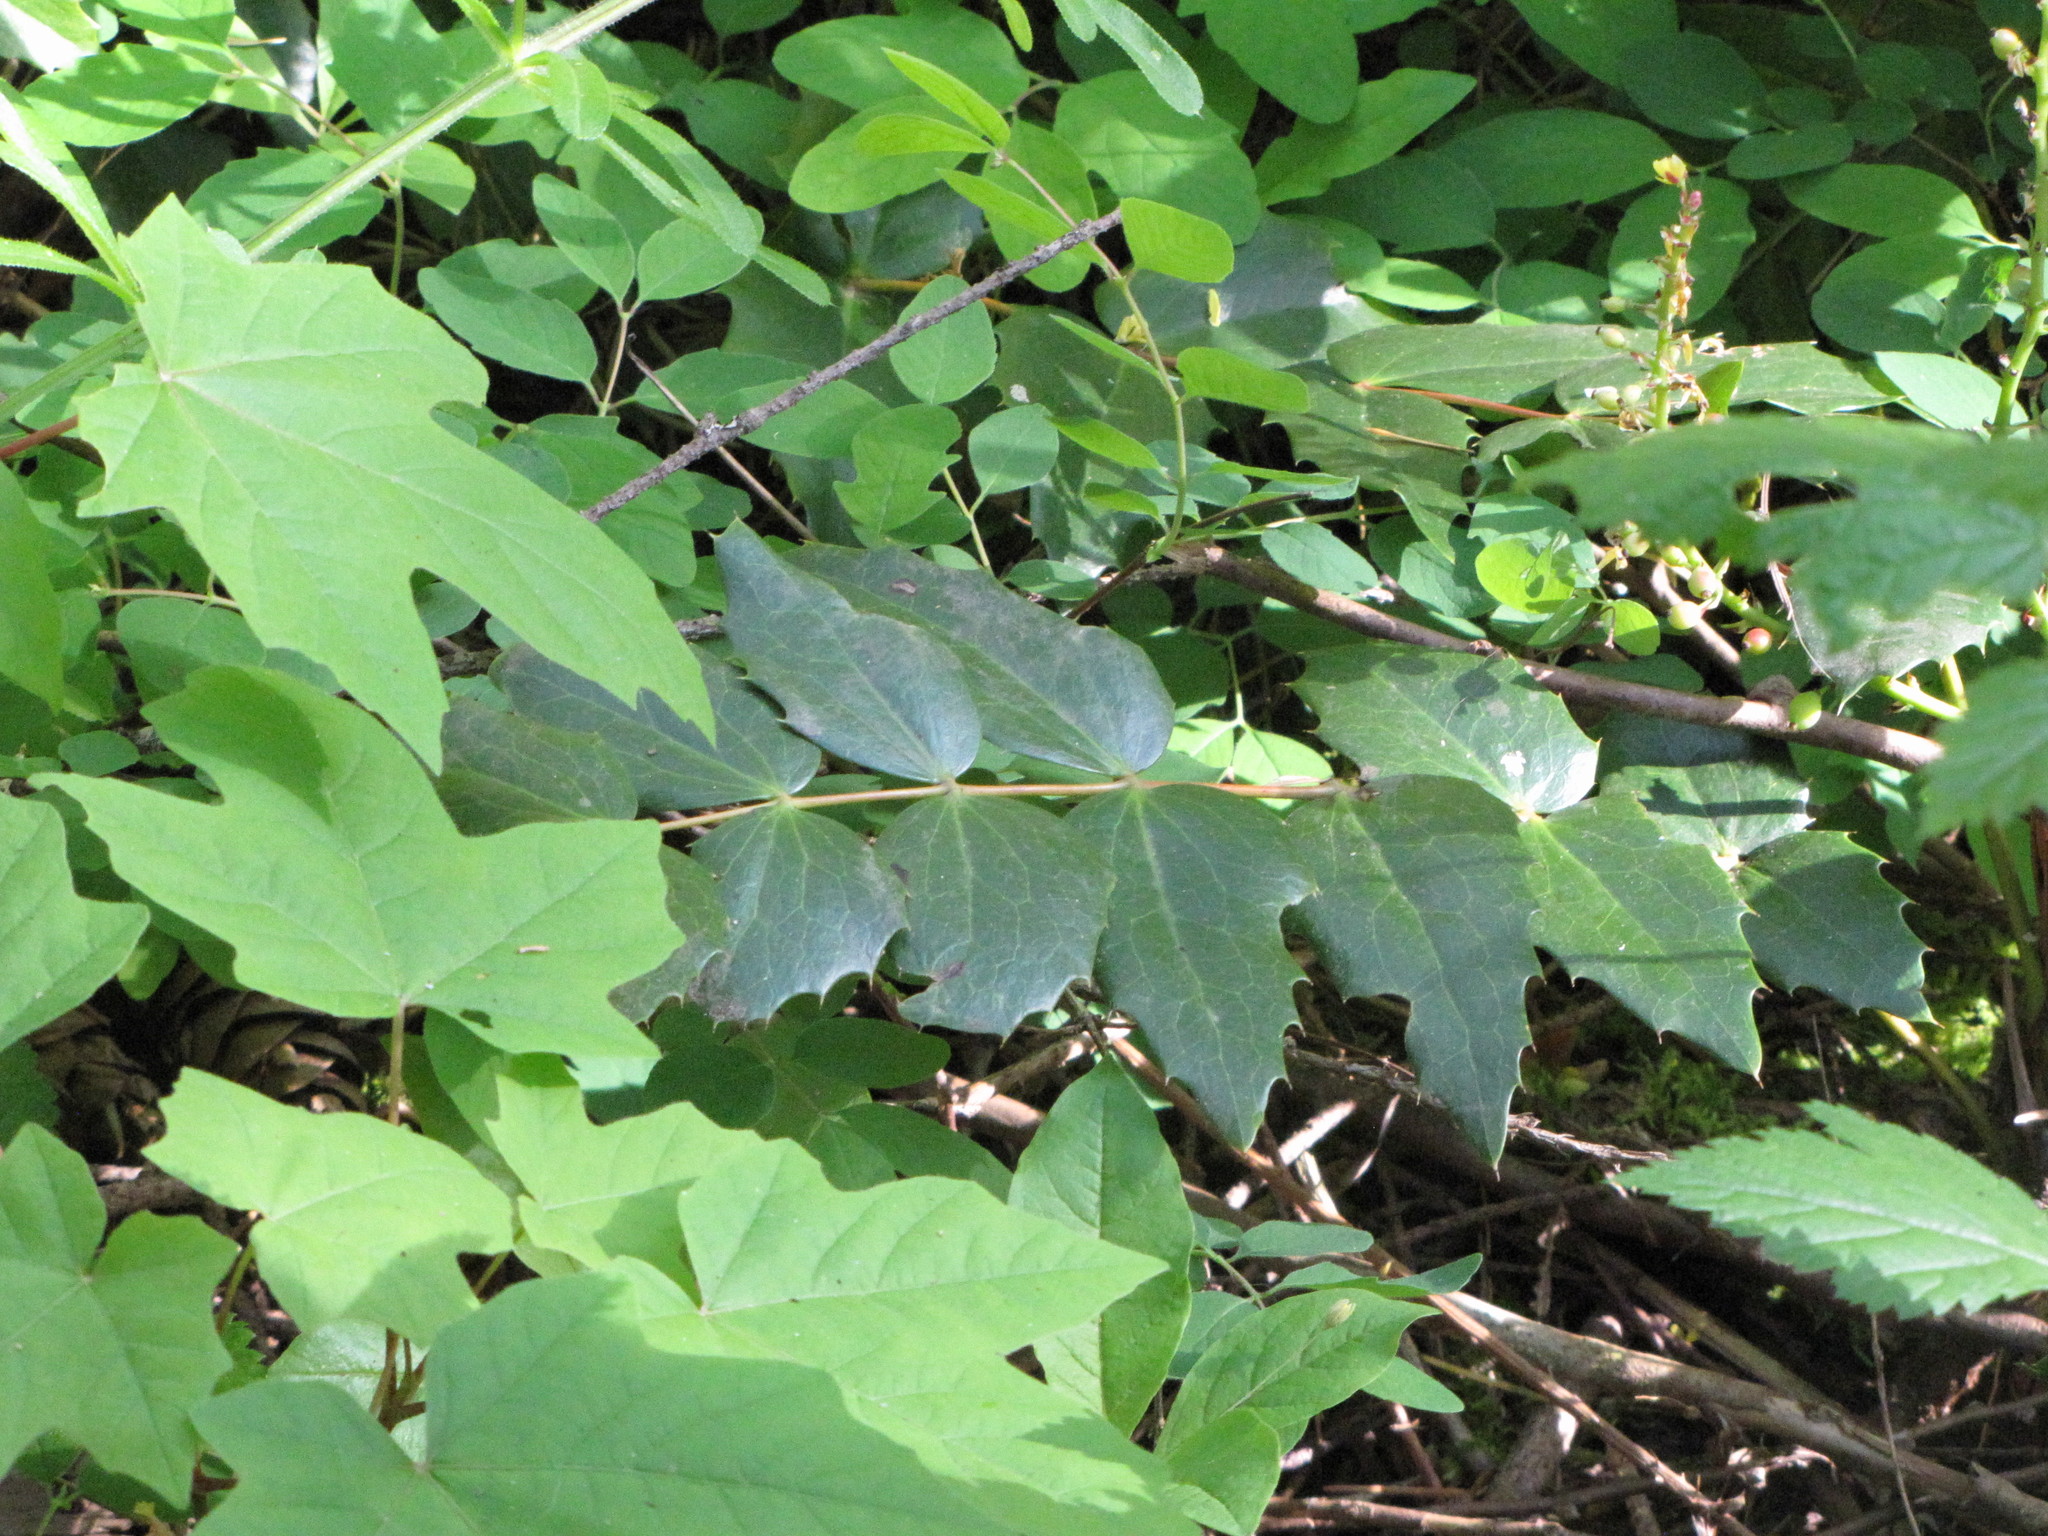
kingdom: Plantae
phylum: Tracheophyta
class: Magnoliopsida
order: Ranunculales
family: Berberidaceae
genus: Mahonia
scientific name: Mahonia nervosa
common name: Cascade oregon-grape
